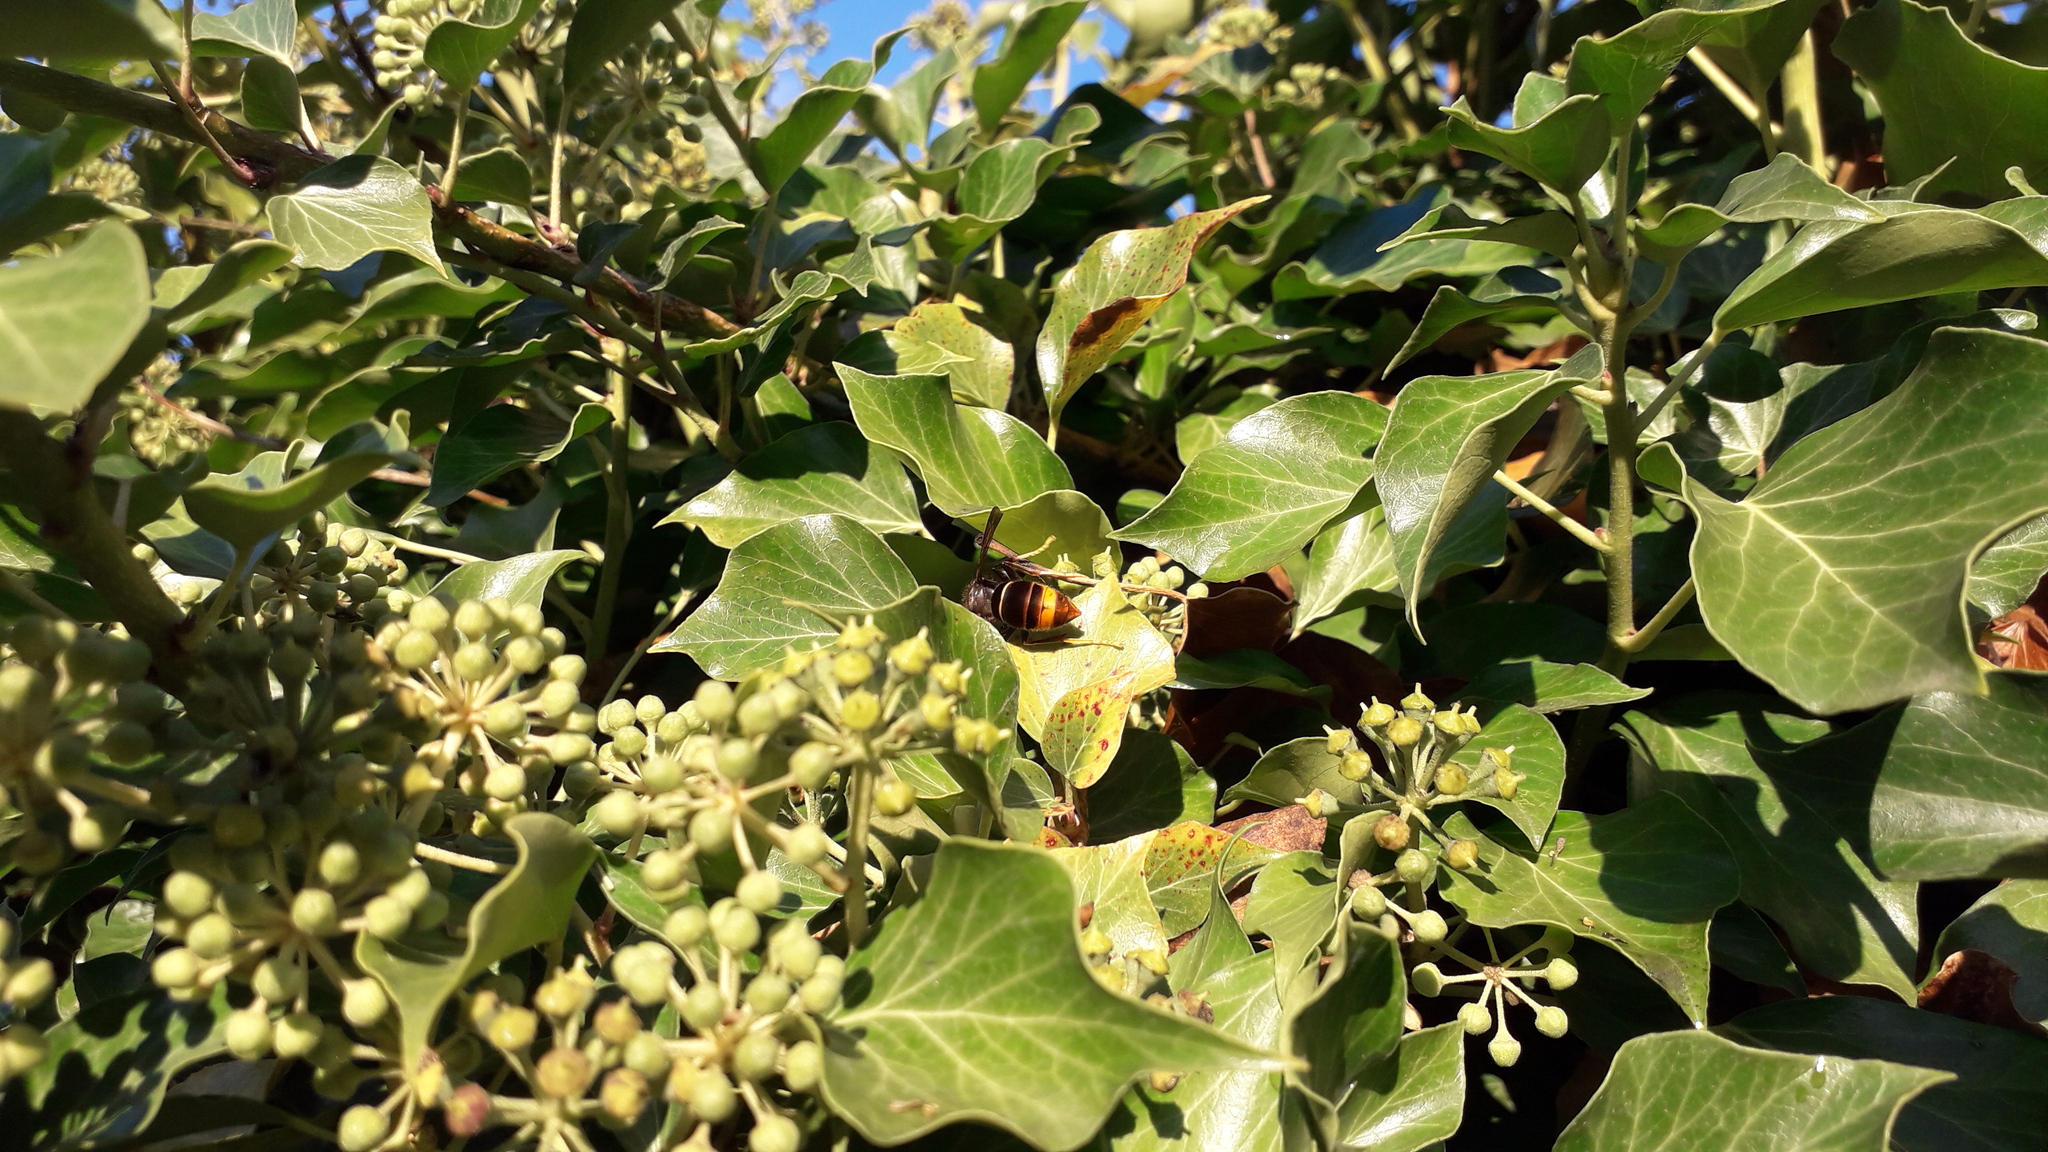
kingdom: Animalia
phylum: Arthropoda
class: Insecta
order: Hymenoptera
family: Vespidae
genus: Vespa
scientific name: Vespa velutina
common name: Asian hornet
